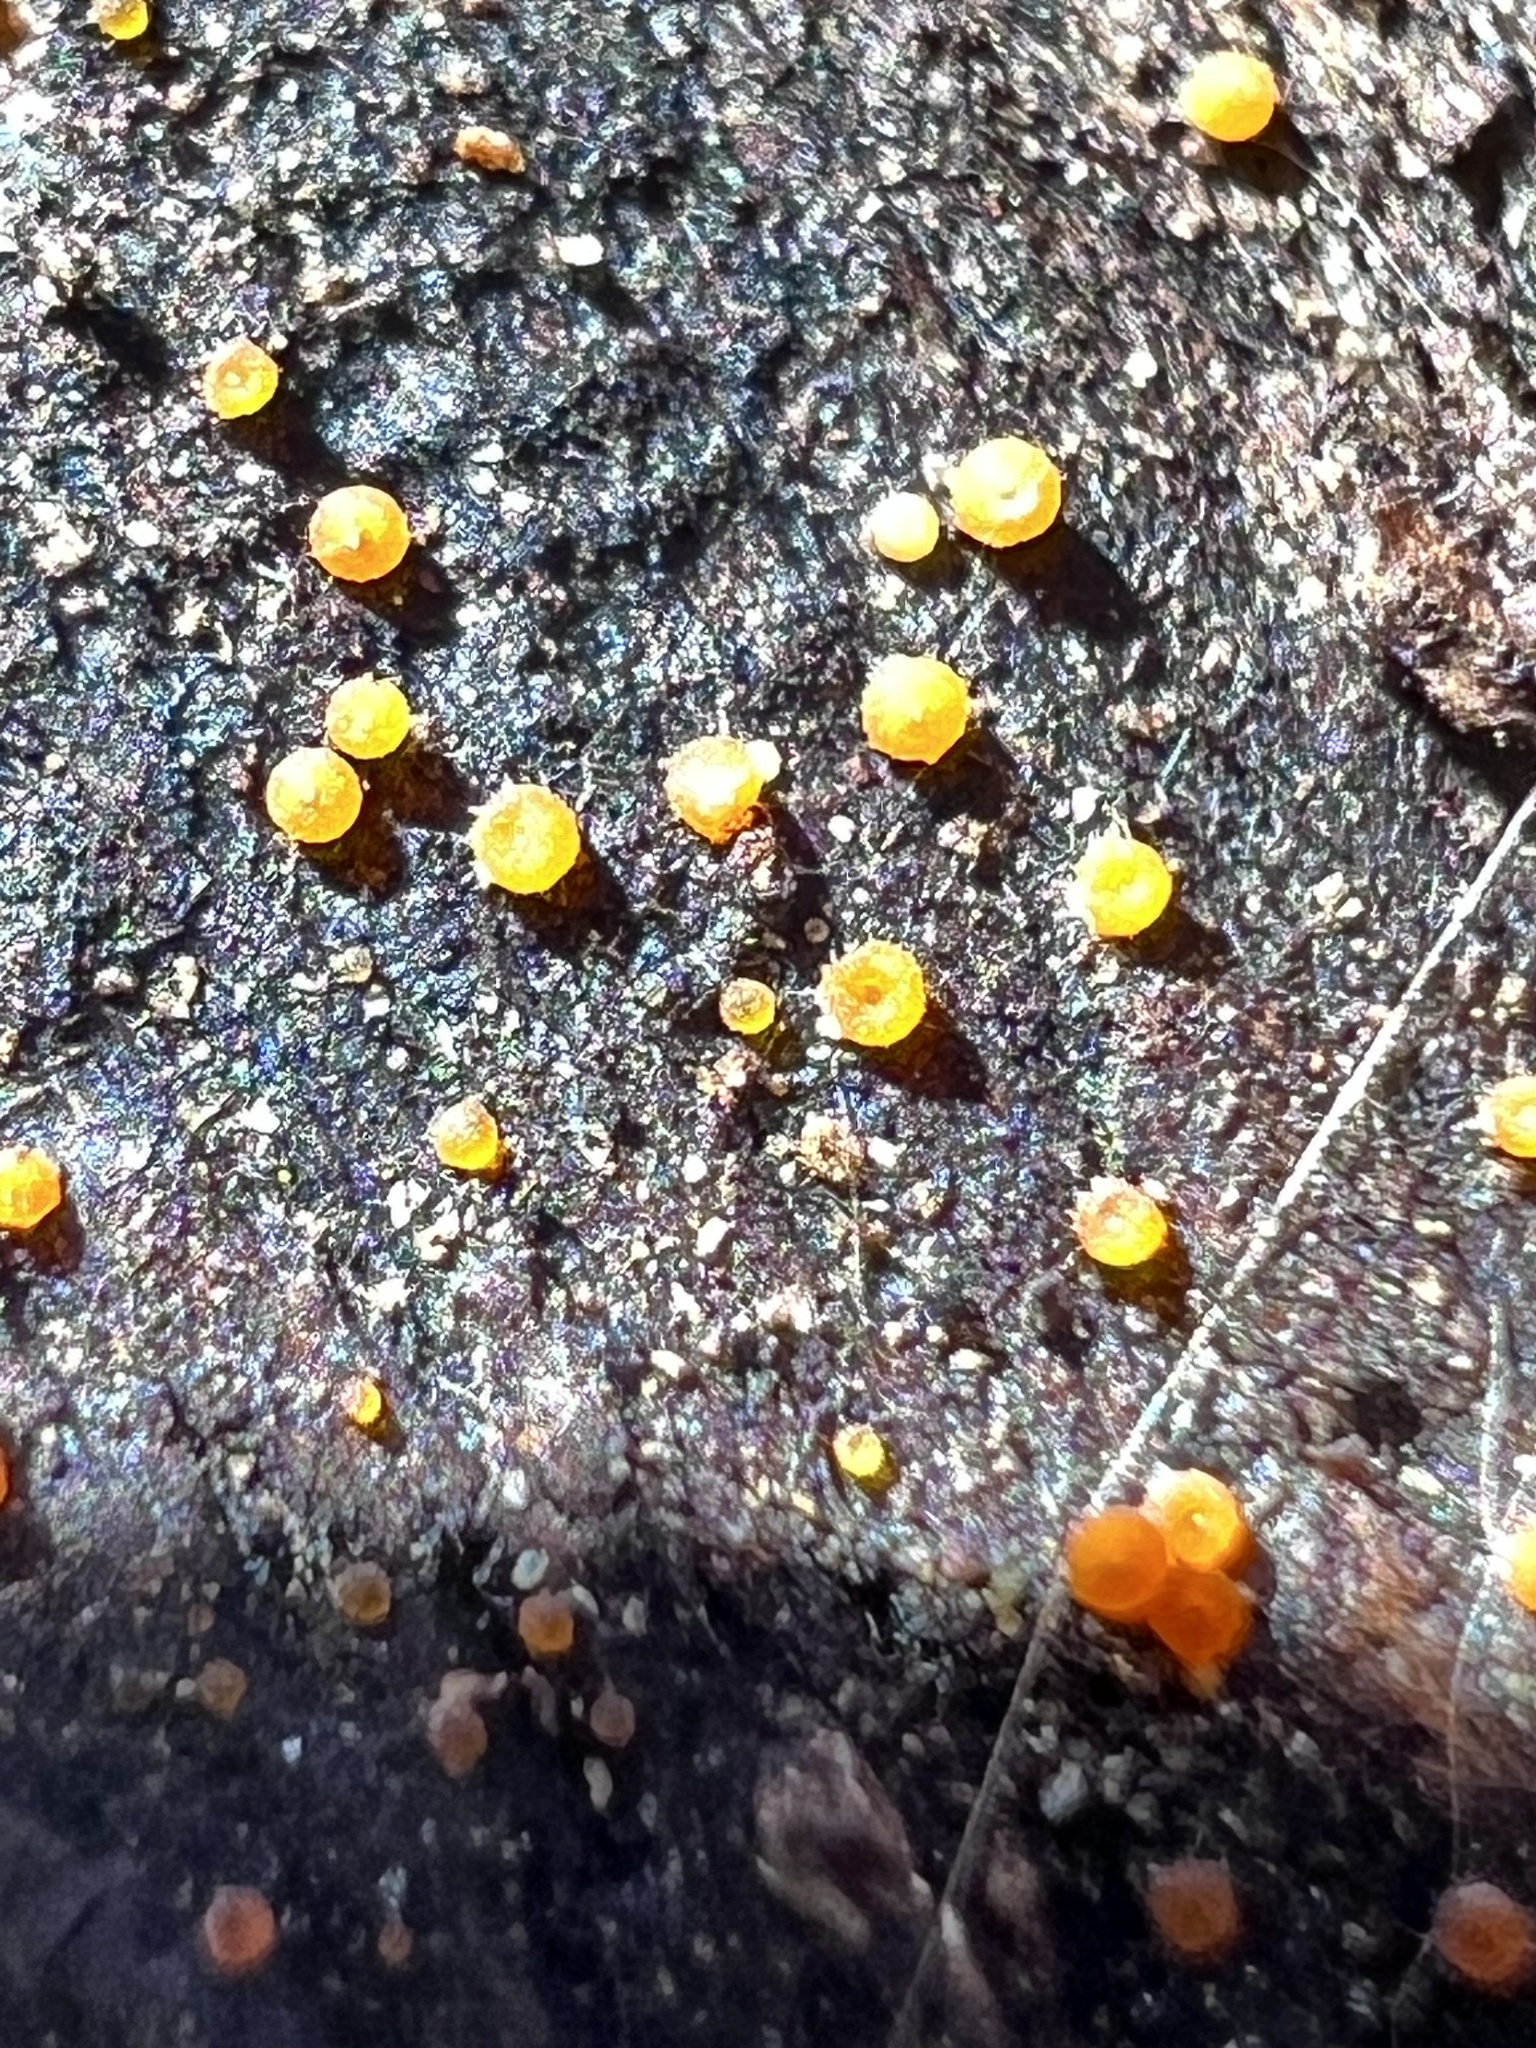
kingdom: Fungi
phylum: Ascomycota
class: Sordariomycetes
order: Hypocreales
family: Nectriaceae
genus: Hydropisphaera
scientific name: Hydropisphaera peziza
